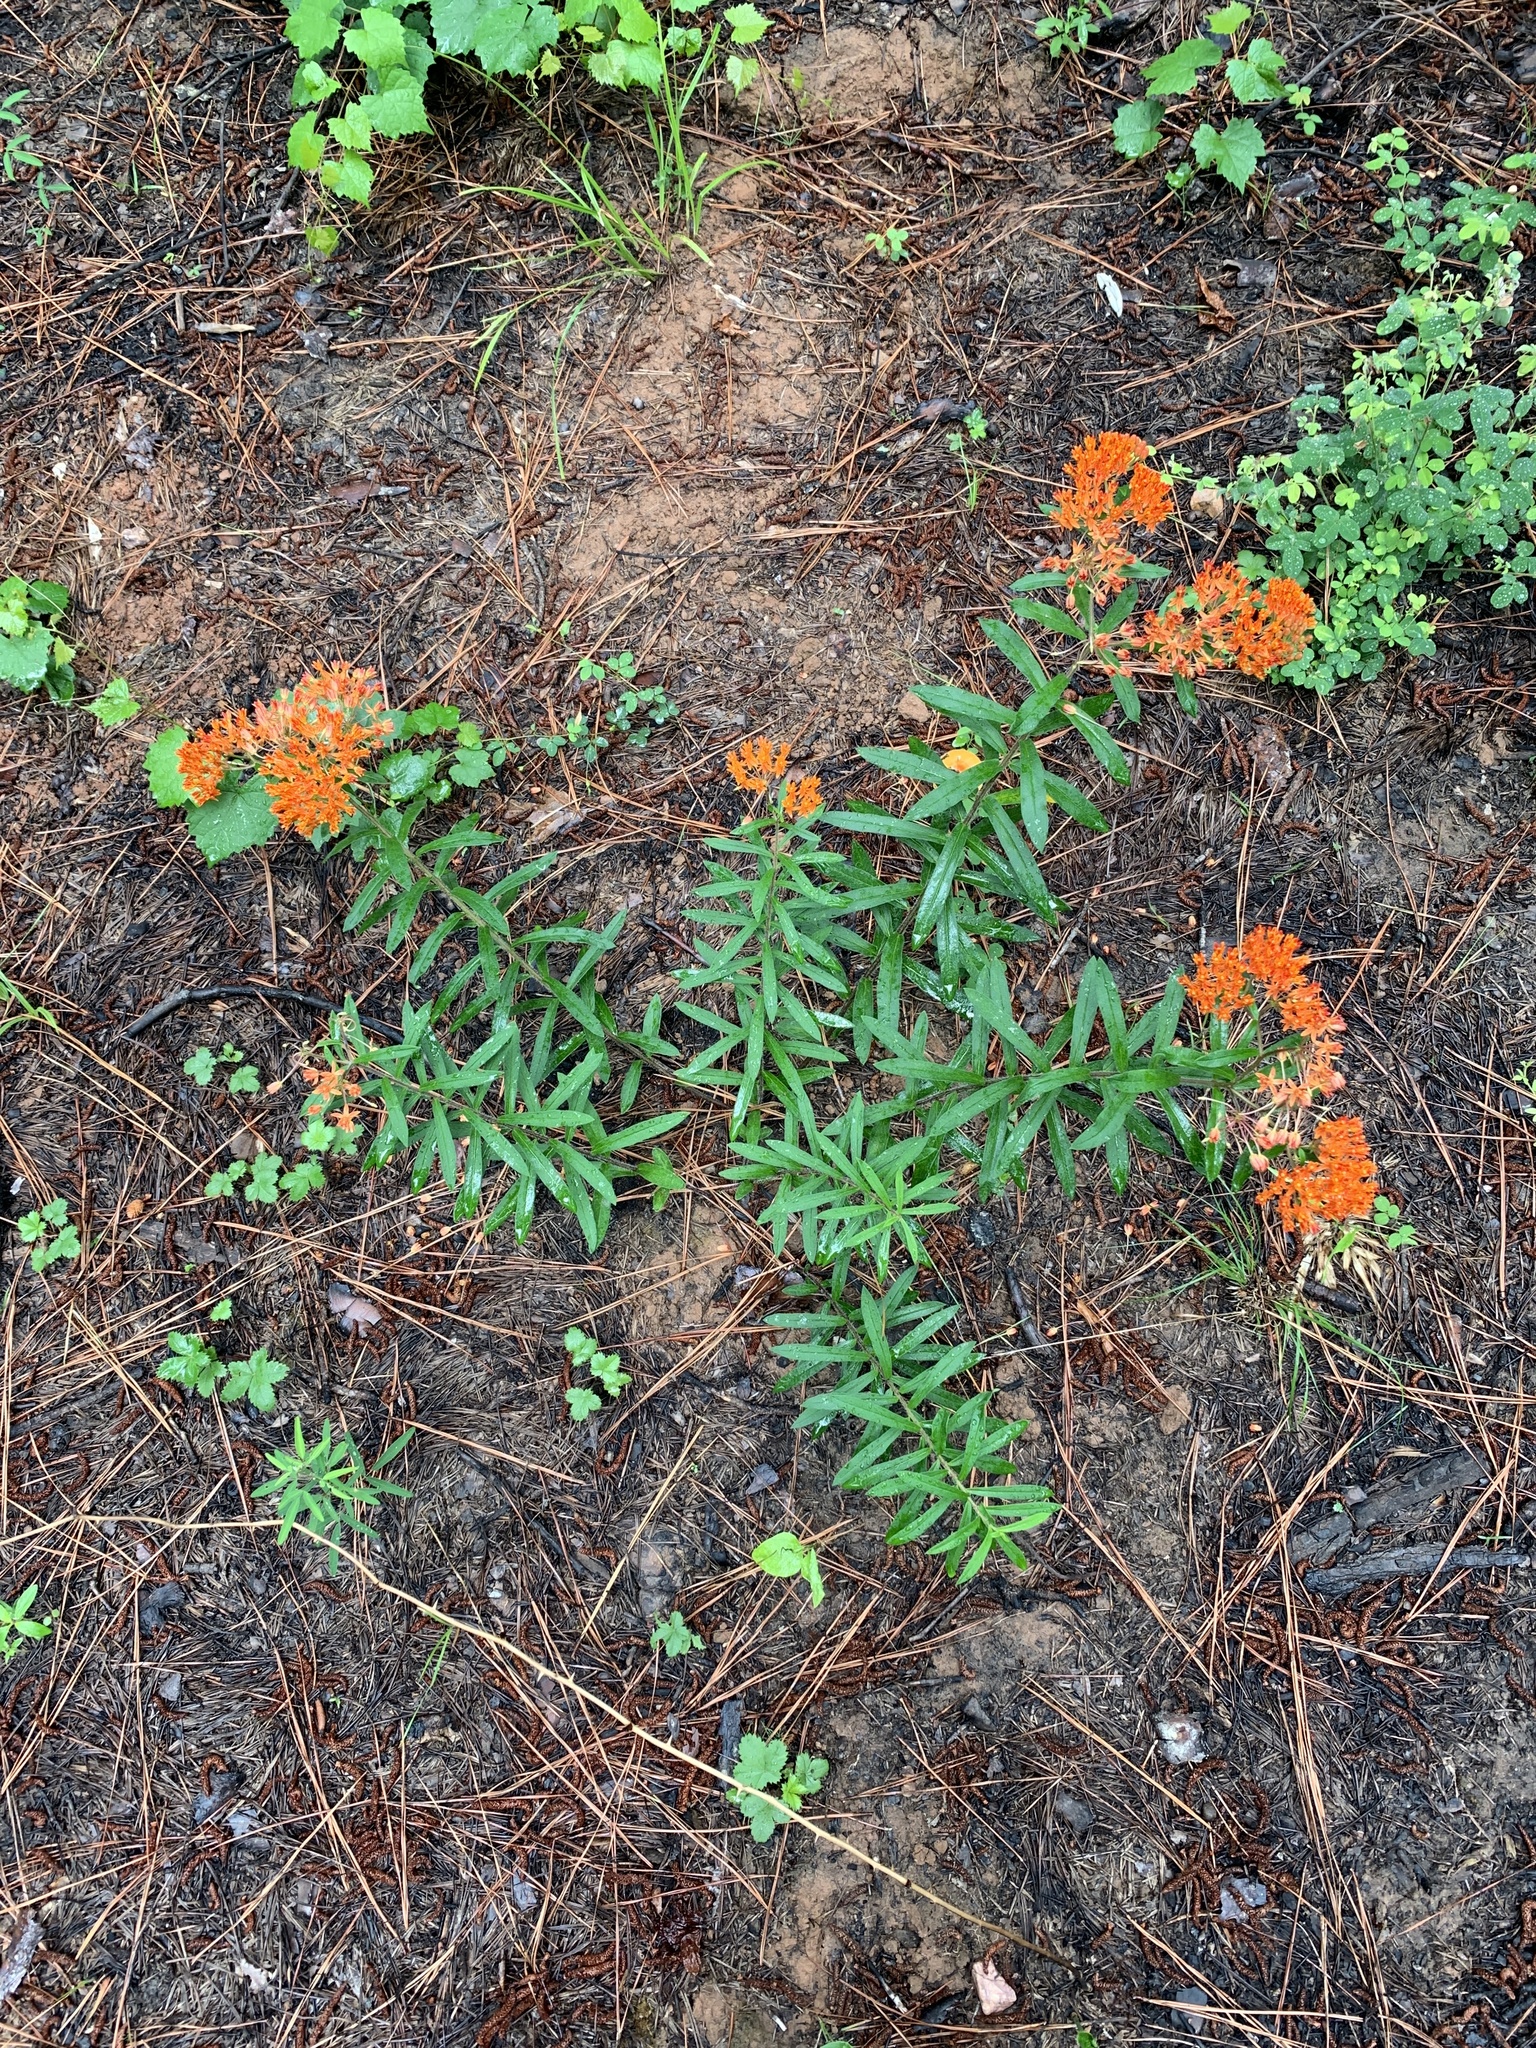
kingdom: Plantae
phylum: Tracheophyta
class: Magnoliopsida
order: Gentianales
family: Apocynaceae
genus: Asclepias
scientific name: Asclepias tuberosa
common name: Butterfly milkweed
